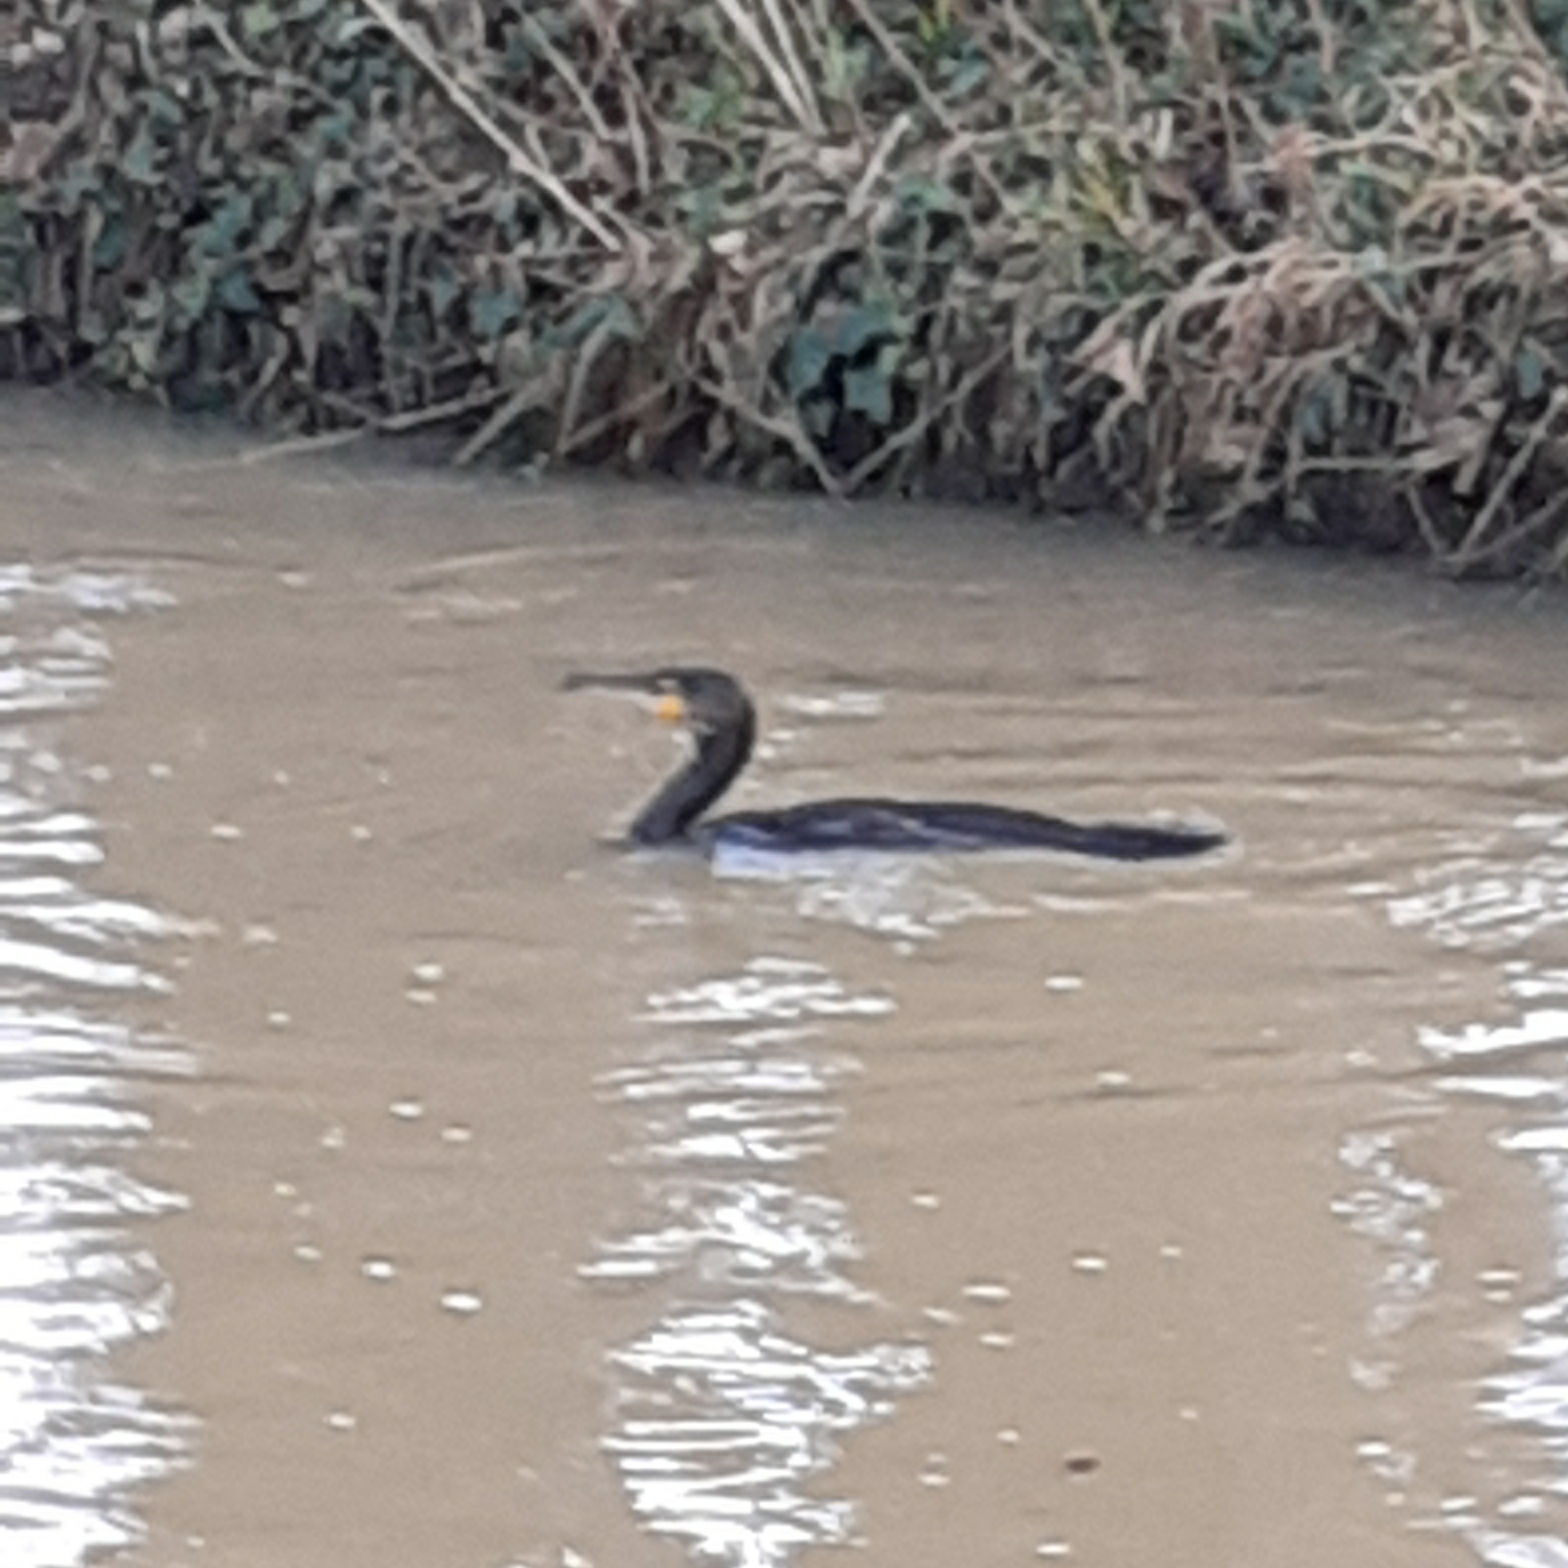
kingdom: Animalia
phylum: Chordata
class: Aves
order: Suliformes
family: Phalacrocoracidae
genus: Phalacrocorax
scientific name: Phalacrocorax carbo
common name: Great cormorant
